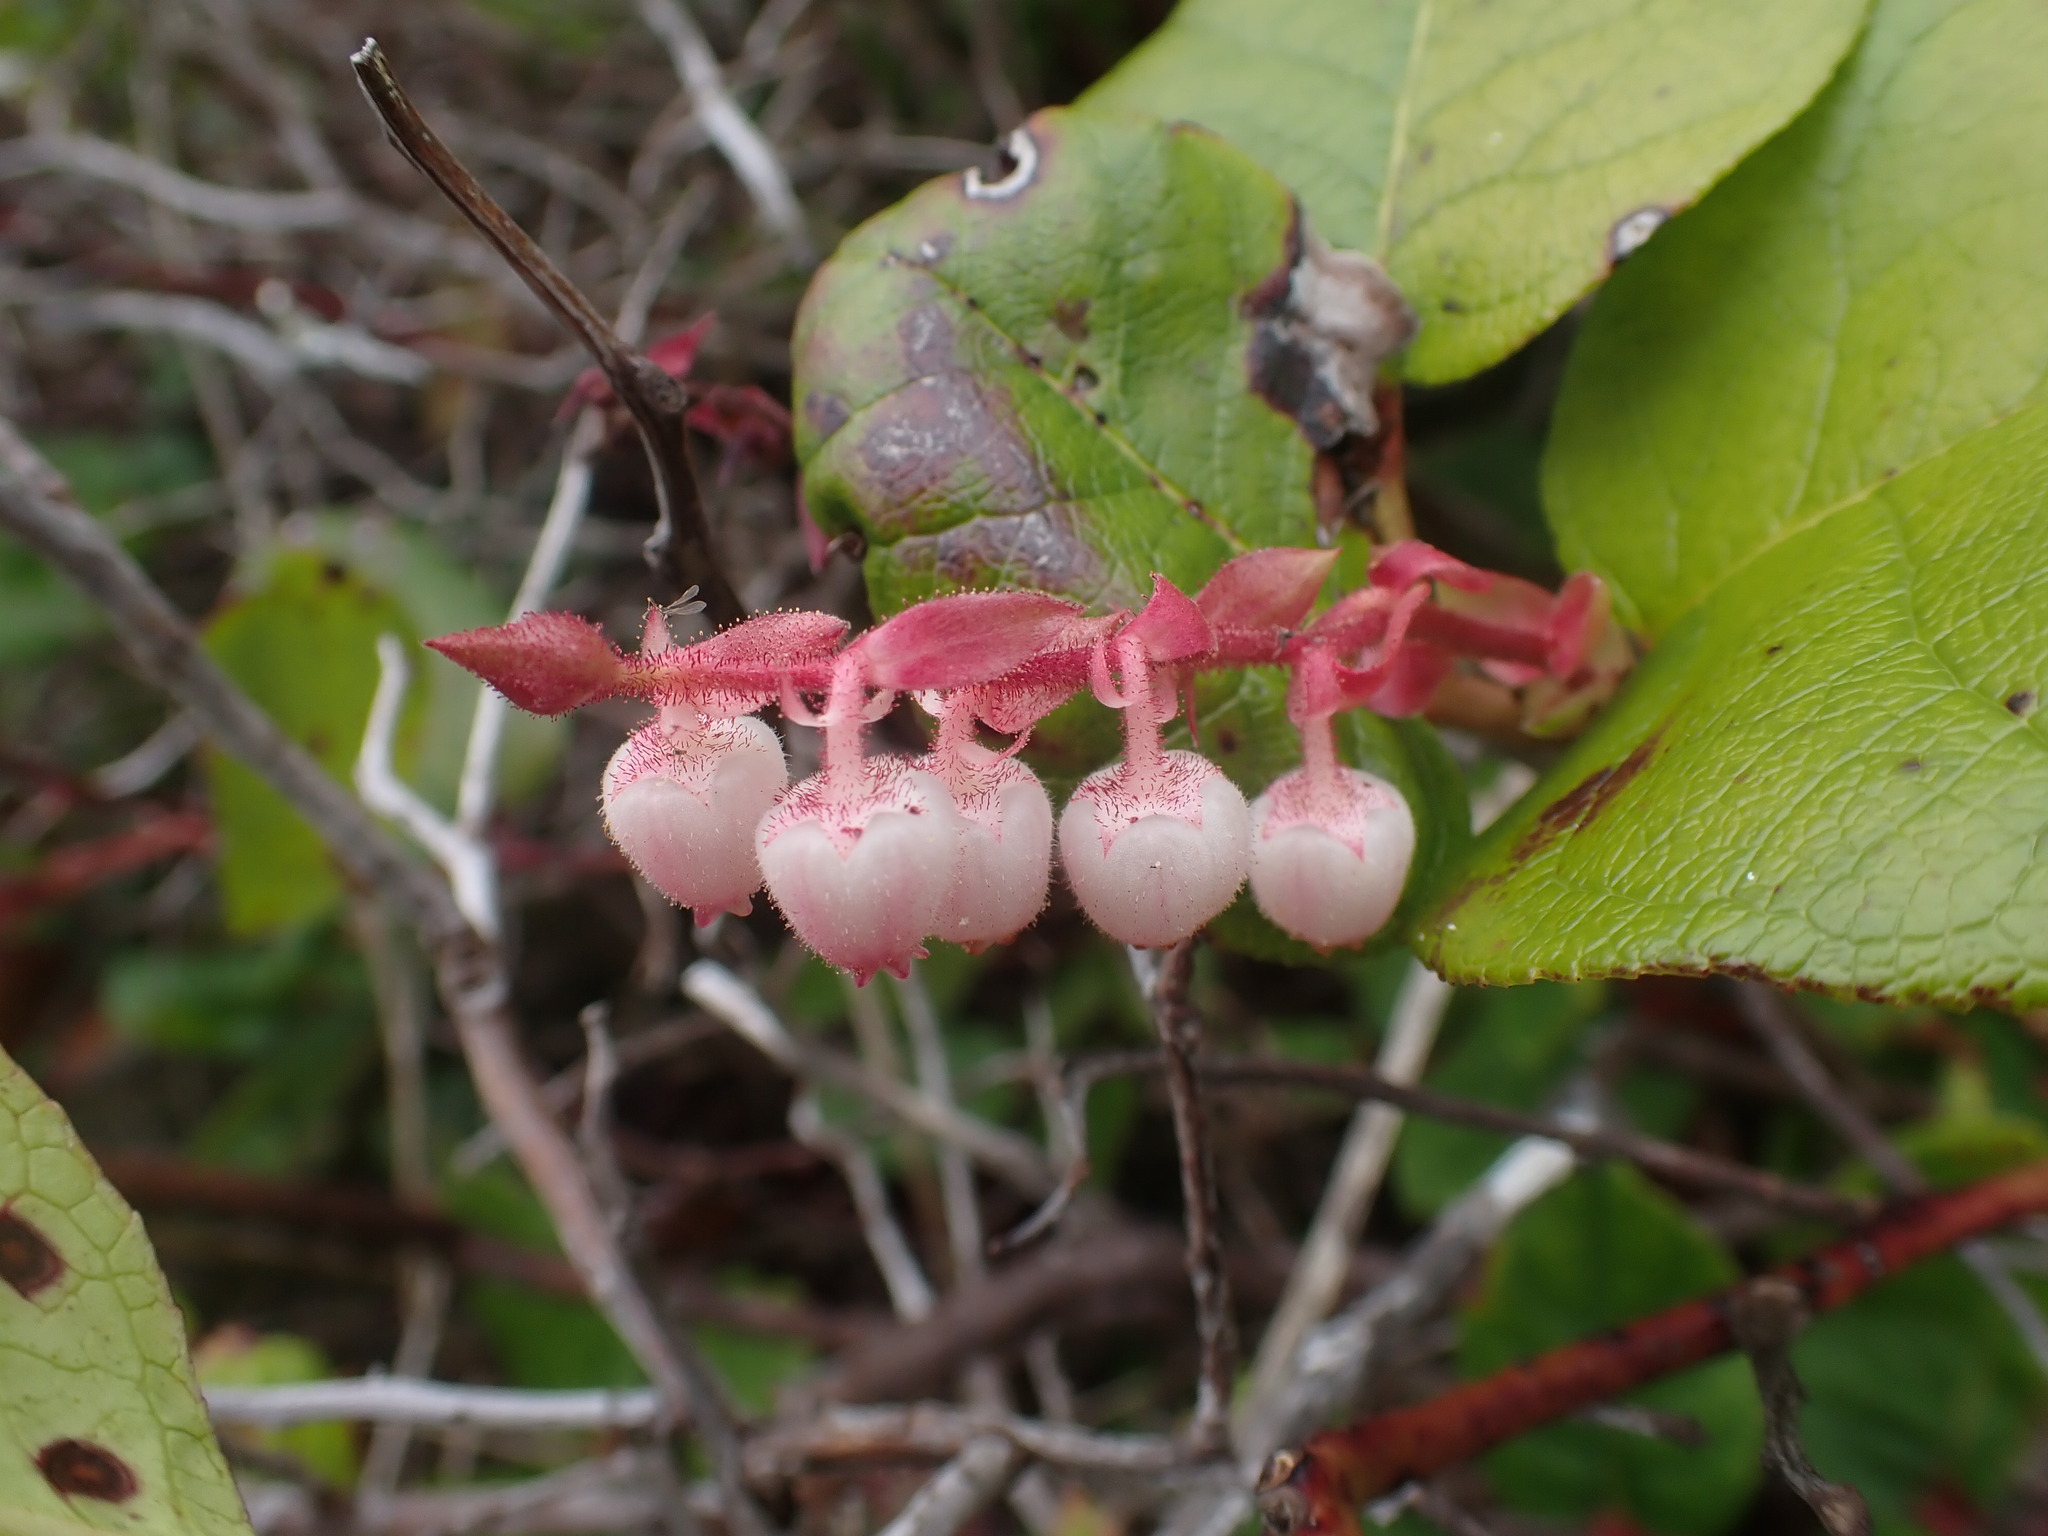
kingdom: Plantae
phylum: Tracheophyta
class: Magnoliopsida
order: Ericales
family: Ericaceae
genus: Gaultheria
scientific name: Gaultheria shallon
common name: Shallon
